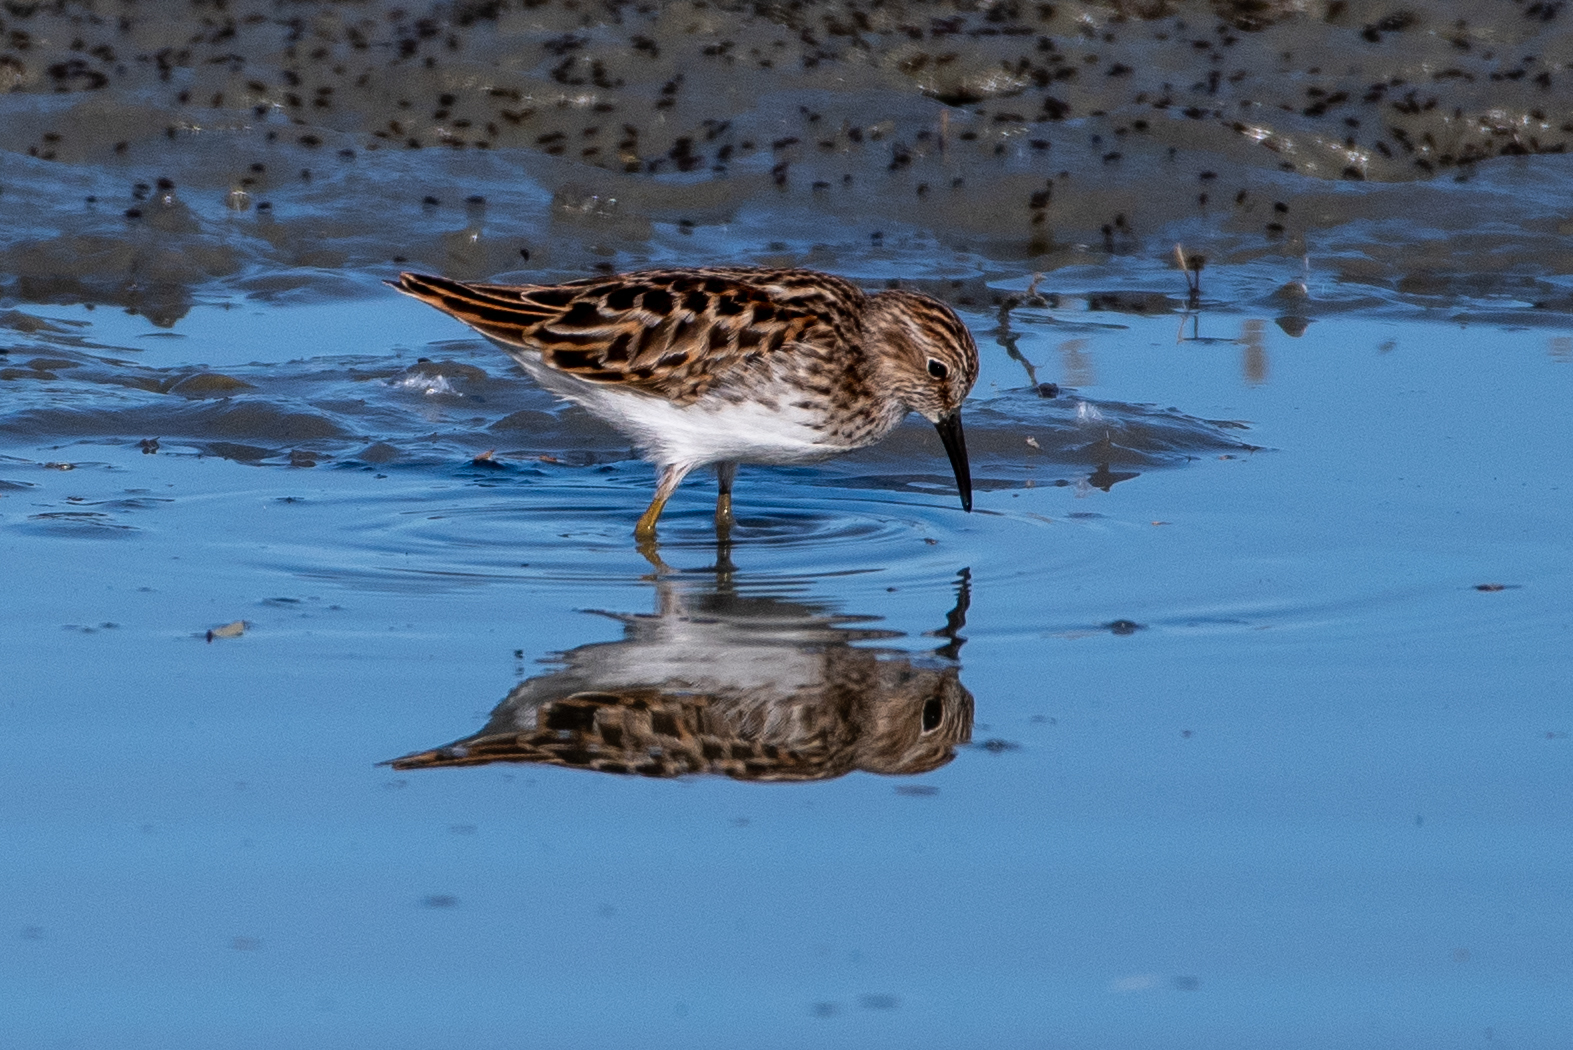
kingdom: Animalia
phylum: Chordata
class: Aves
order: Charadriiformes
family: Scolopacidae
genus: Calidris
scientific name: Calidris minutilla
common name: Least sandpiper
